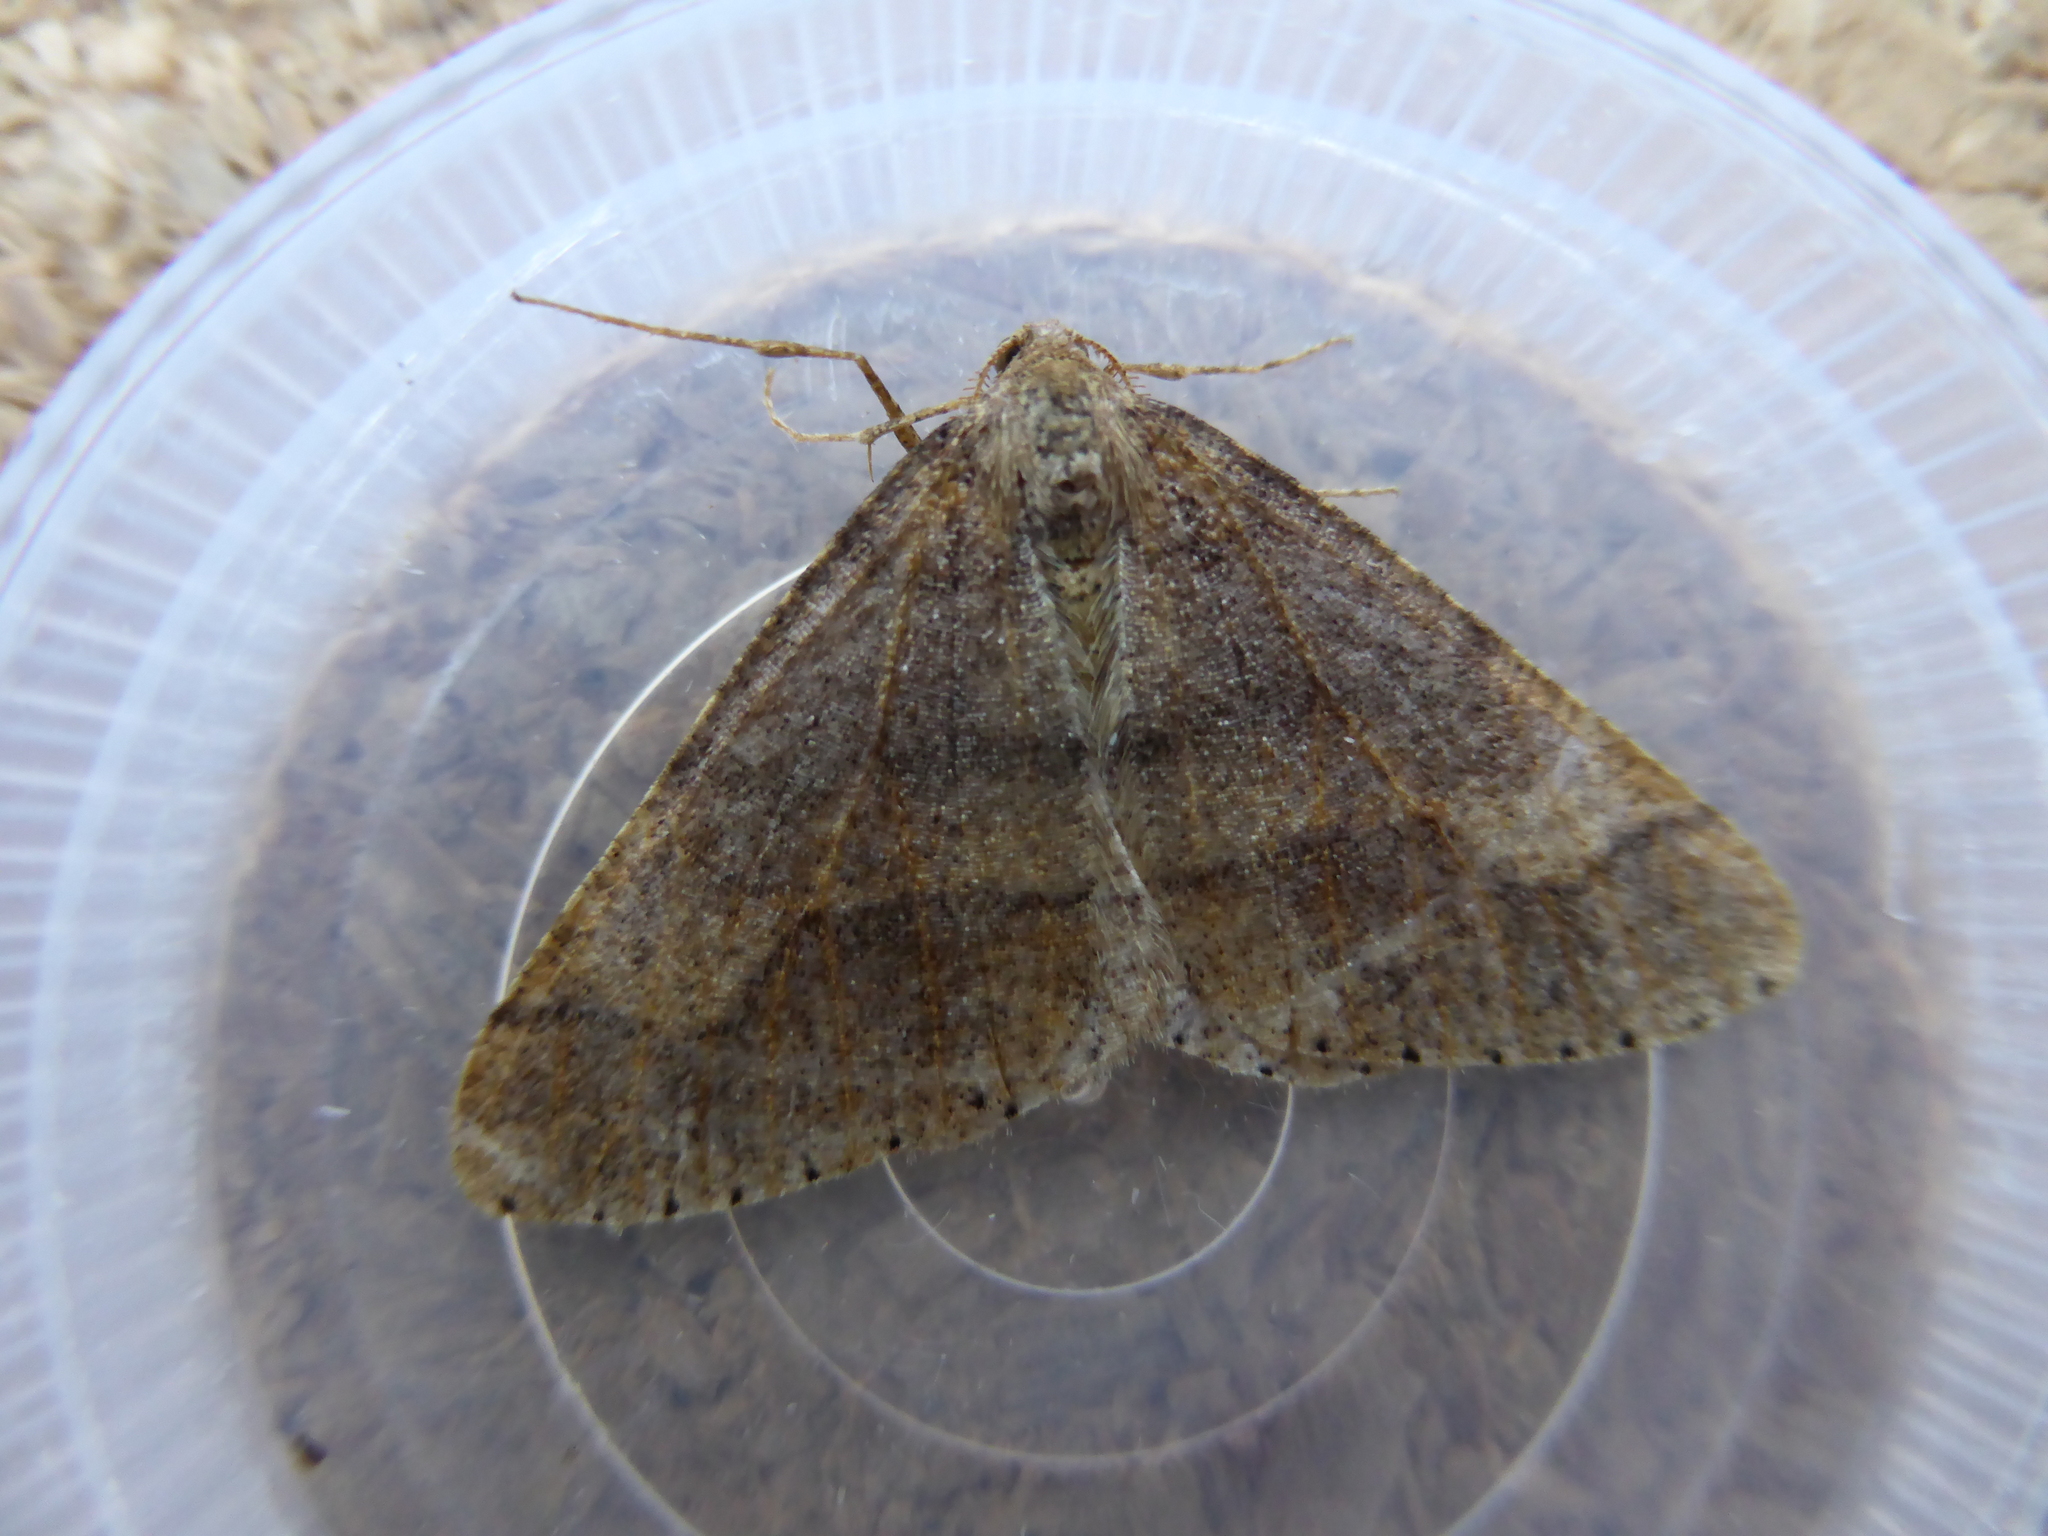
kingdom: Animalia
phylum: Arthropoda
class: Insecta
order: Lepidoptera
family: Geometridae
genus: Agriopis
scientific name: Agriopis marginaria
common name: Dotted border
